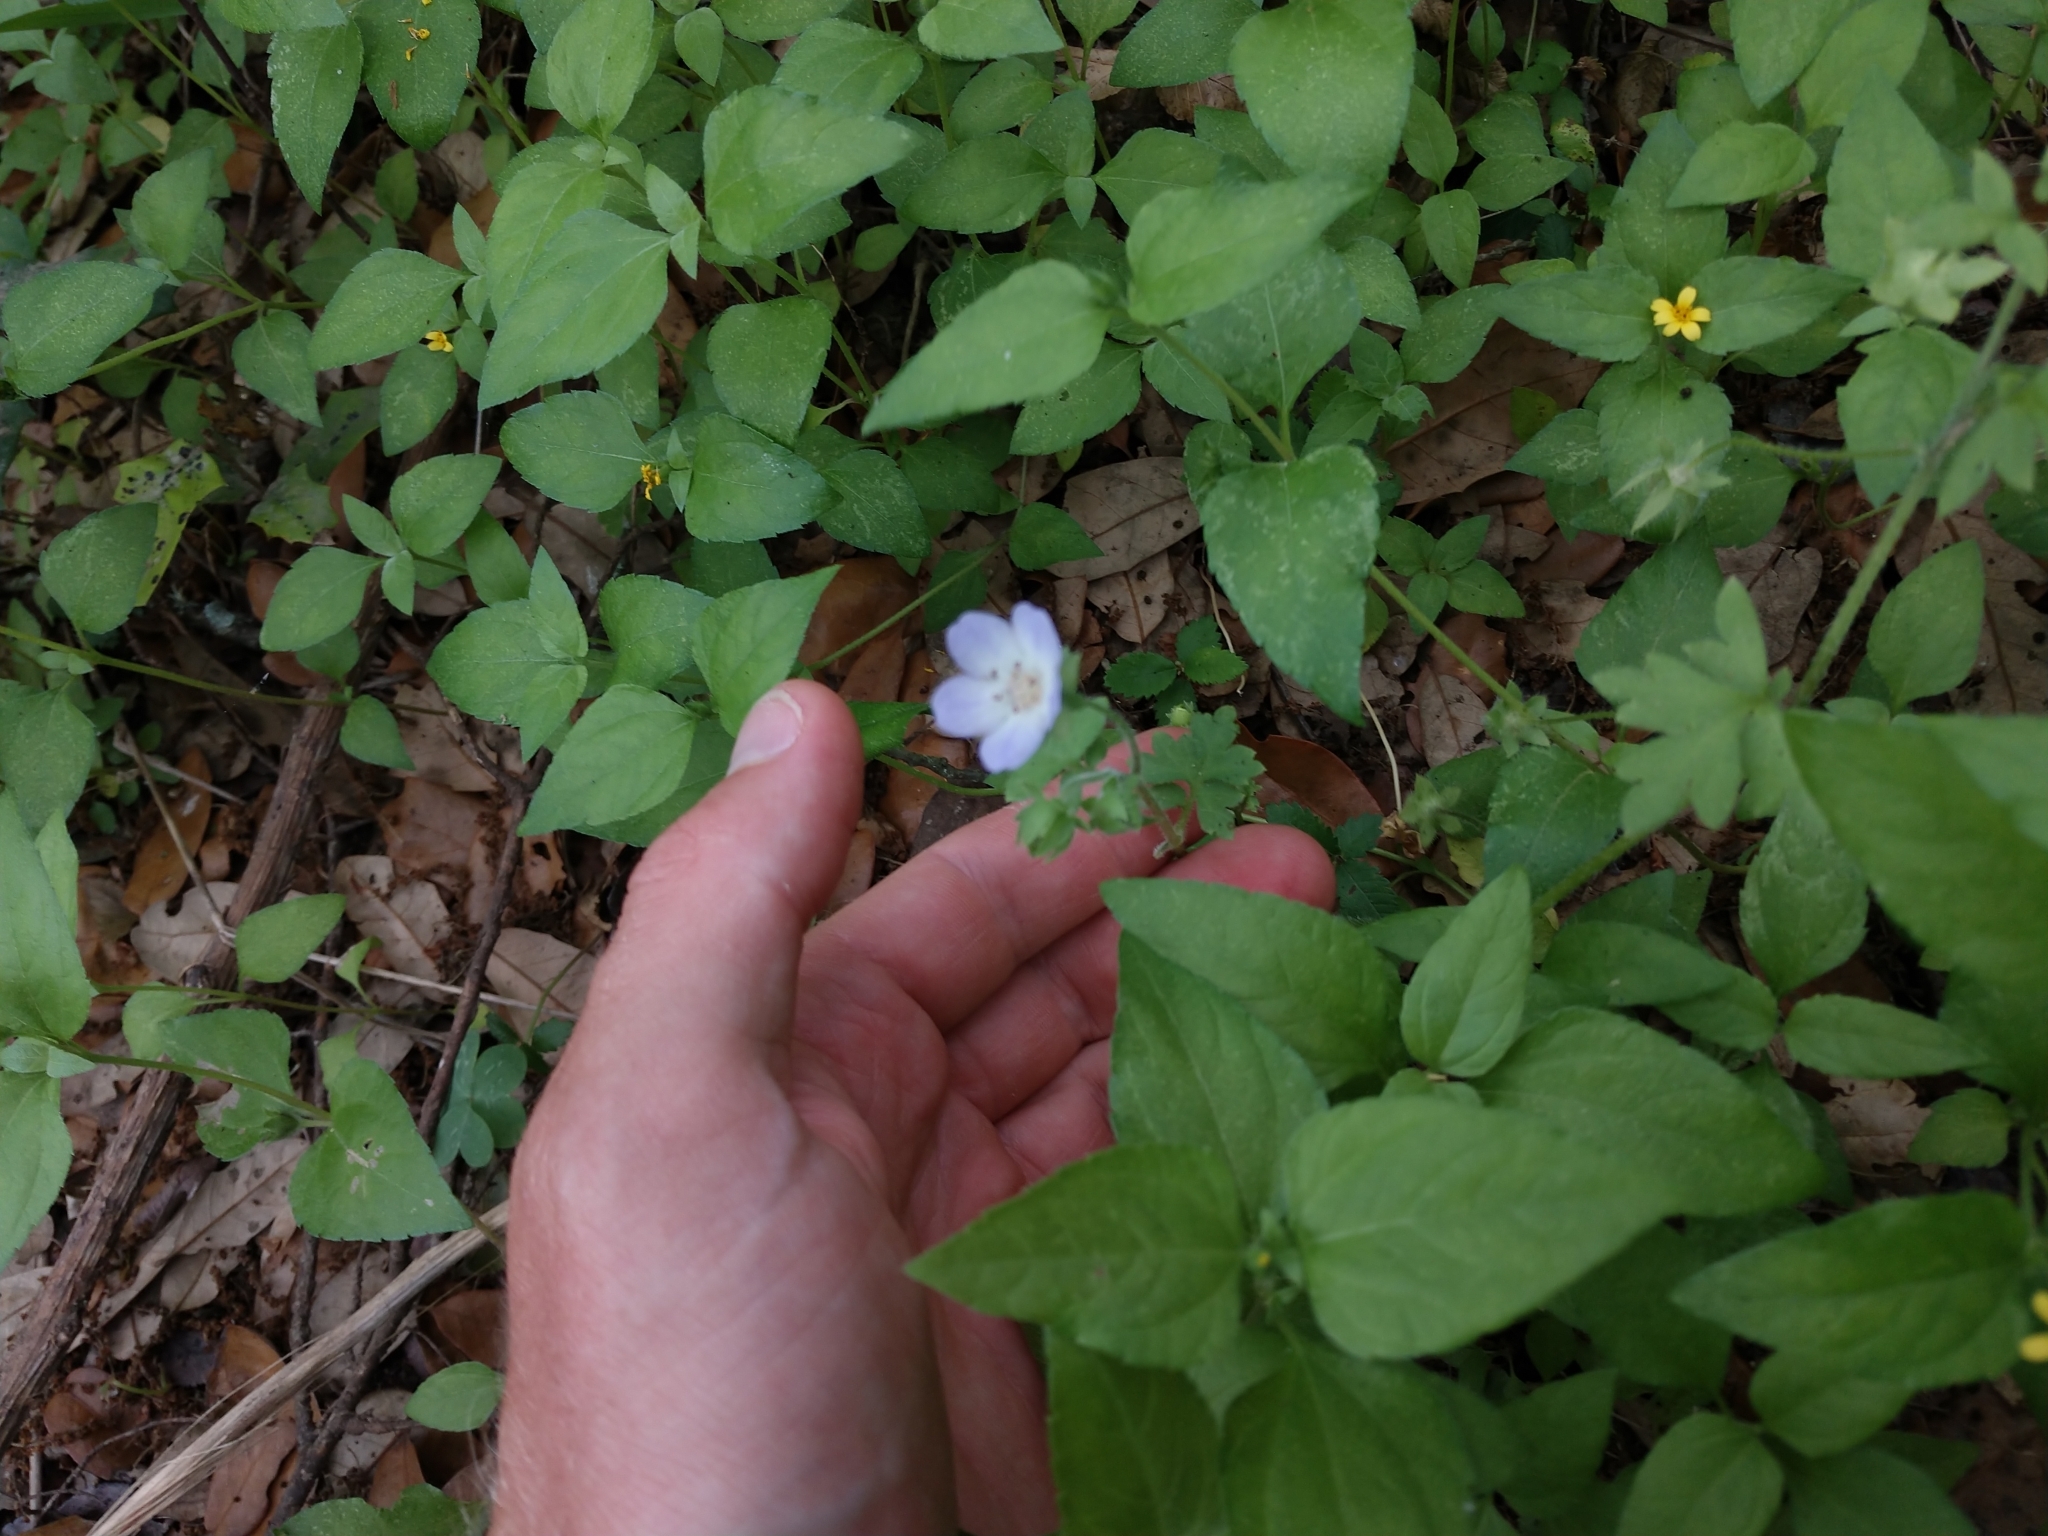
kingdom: Plantae
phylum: Tracheophyta
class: Magnoliopsida
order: Boraginales
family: Hydrophyllaceae
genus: Nemophila
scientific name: Nemophila phacelioides
